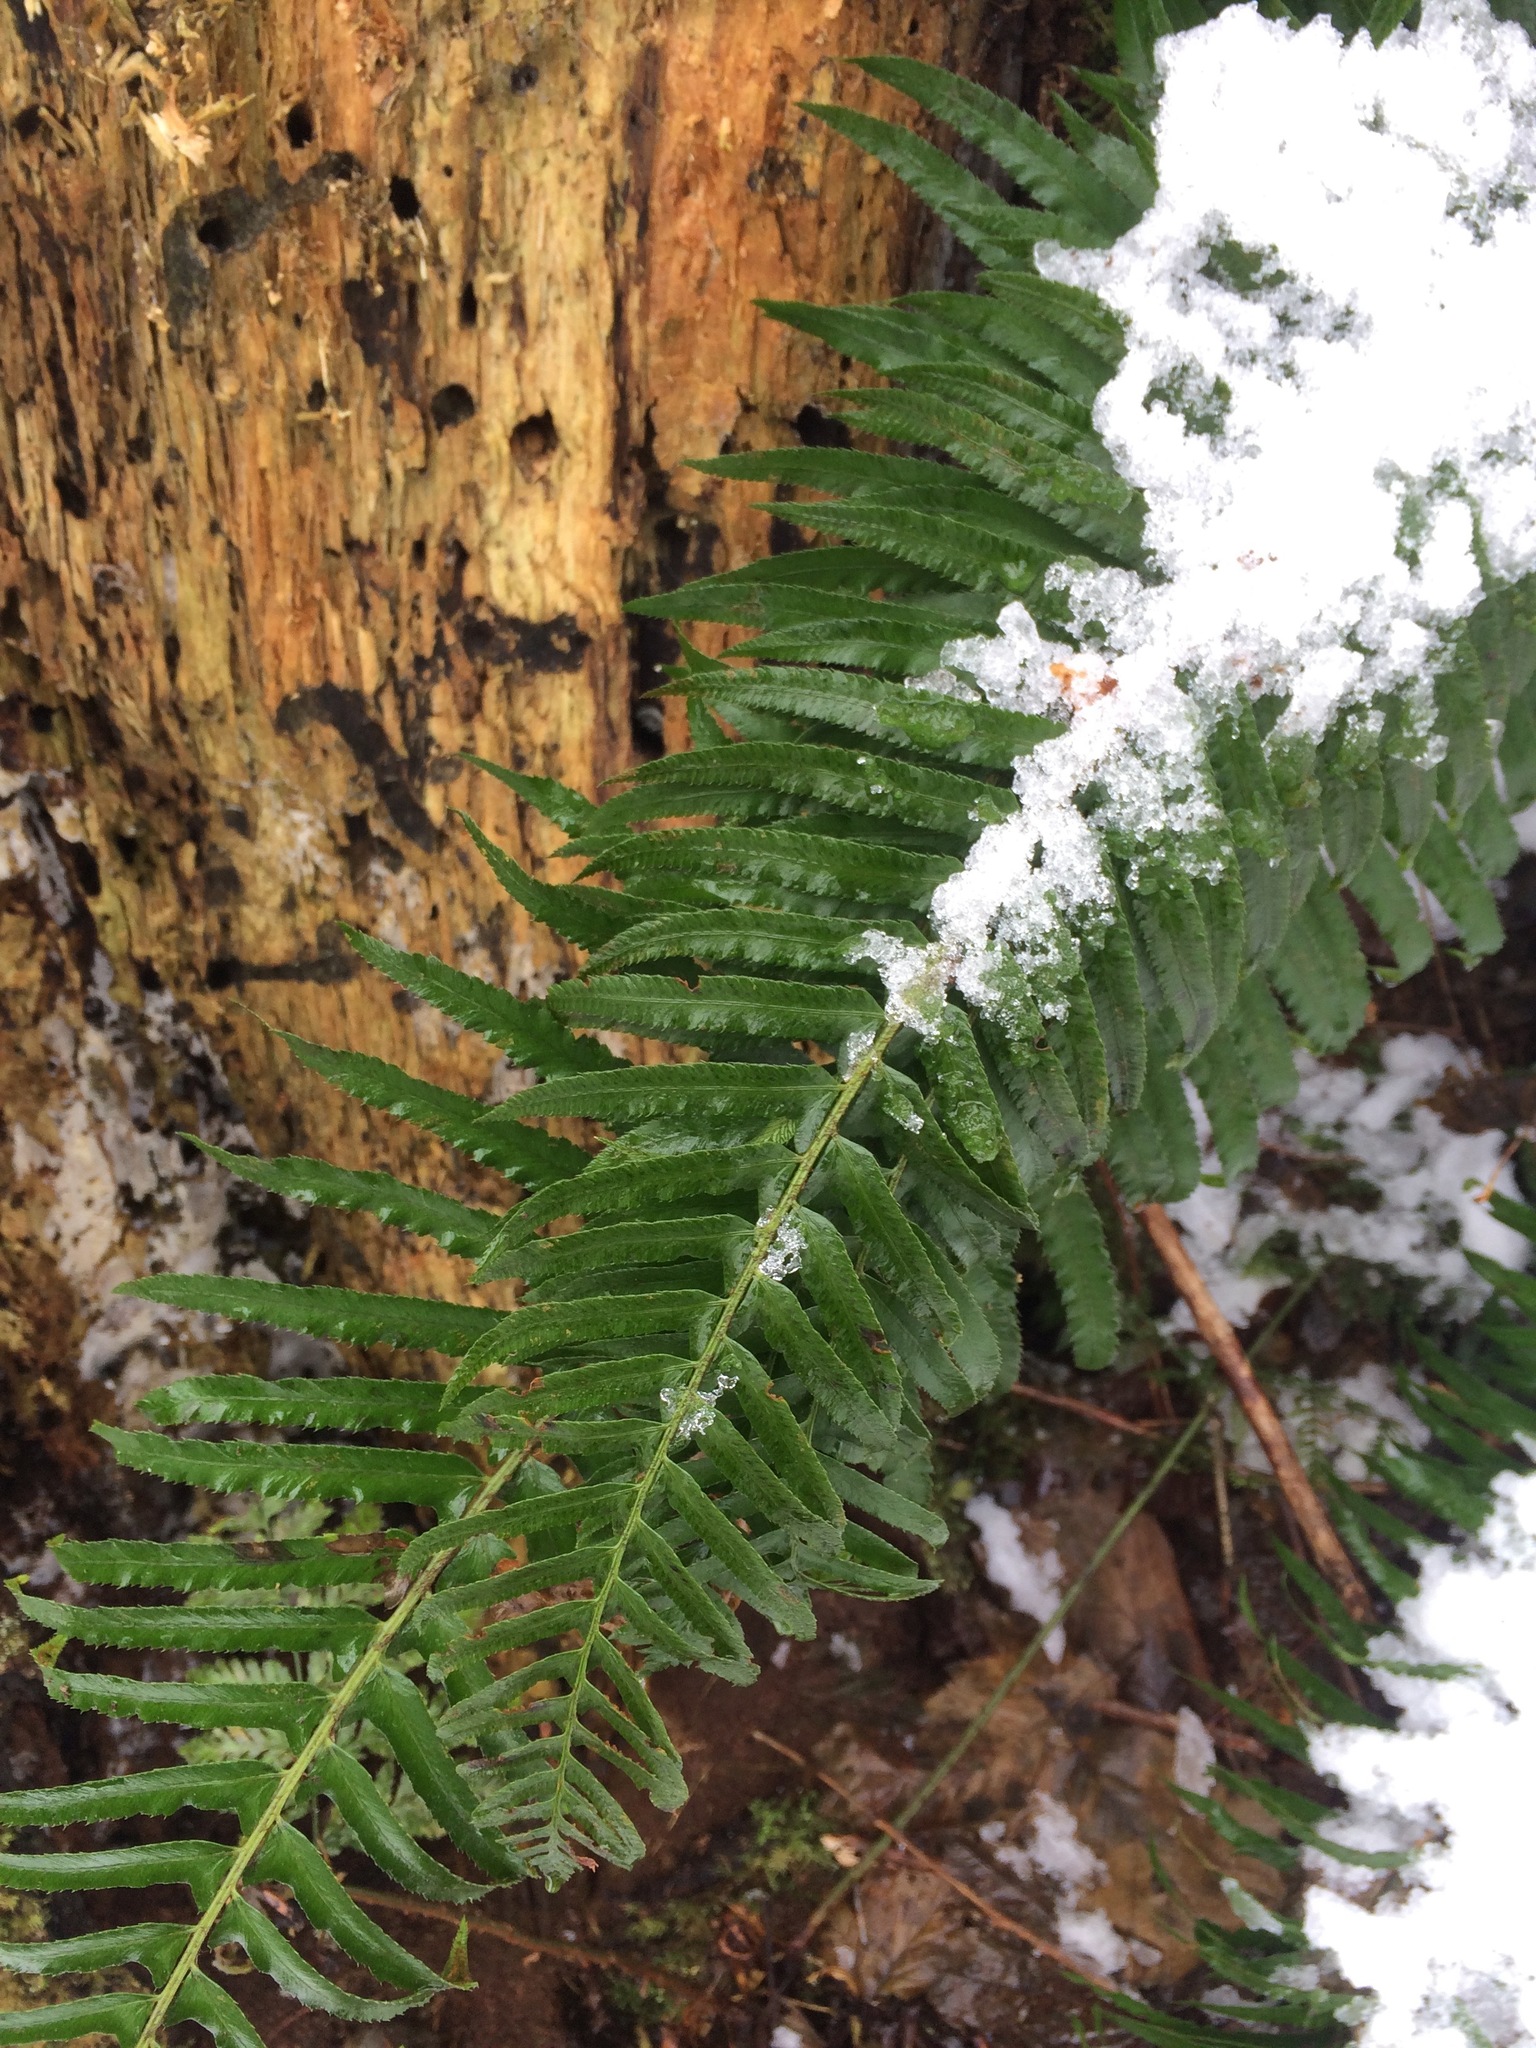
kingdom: Plantae
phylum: Tracheophyta
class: Polypodiopsida
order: Polypodiales
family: Dryopteridaceae
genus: Polystichum
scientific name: Polystichum munitum
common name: Western sword-fern
